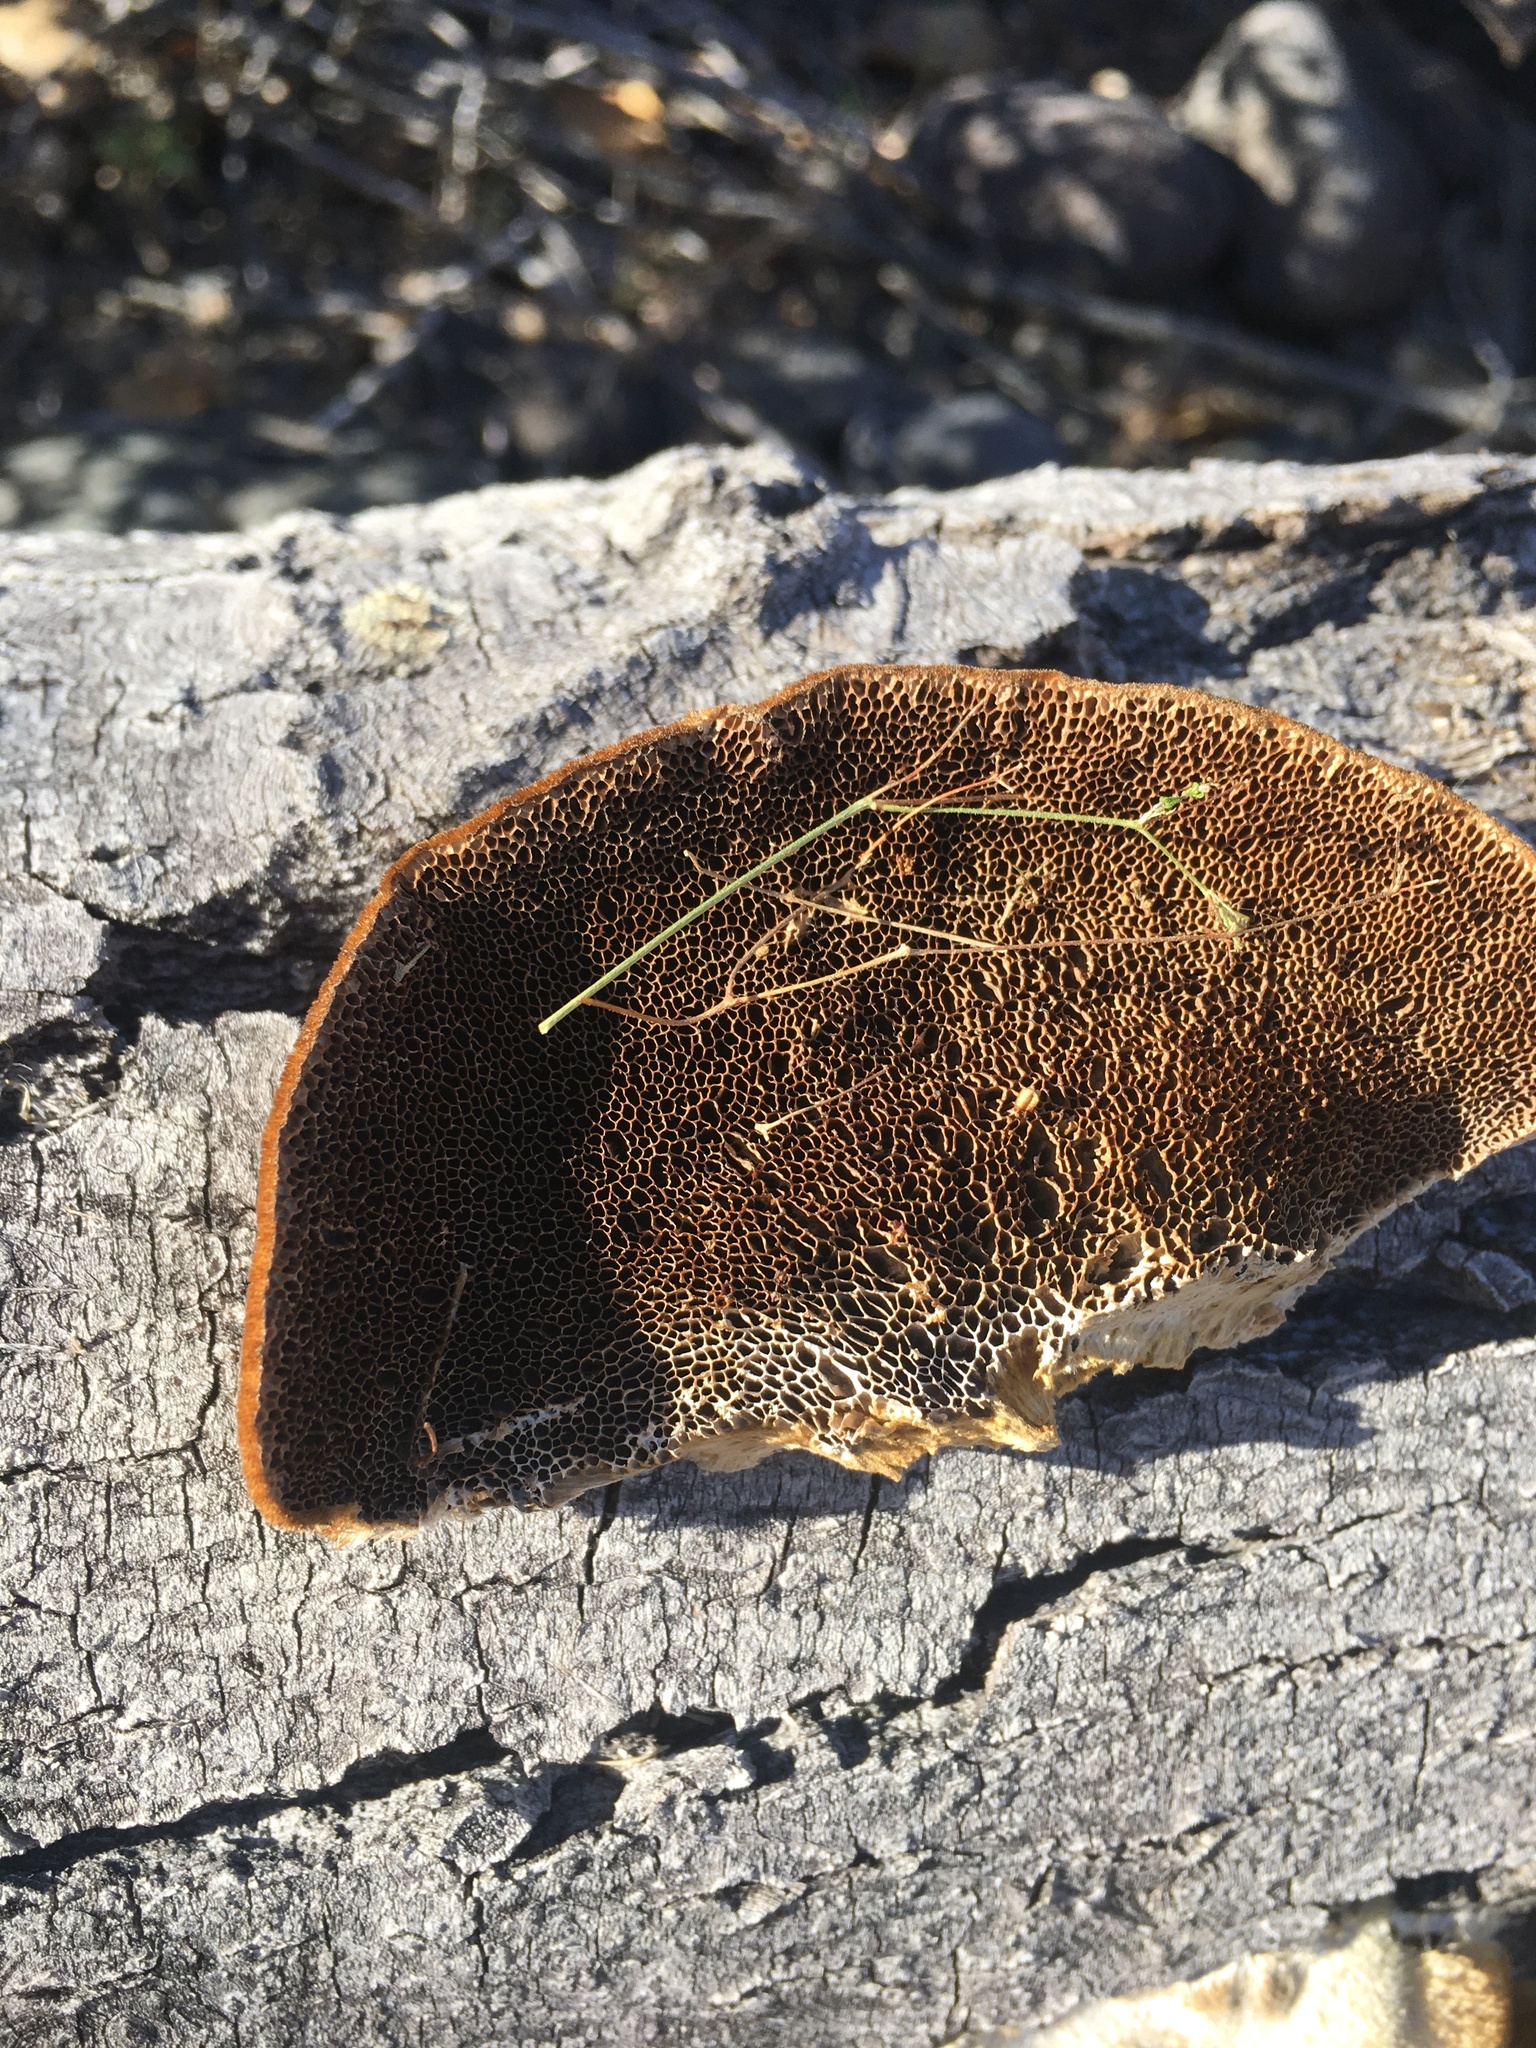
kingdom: Fungi
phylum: Basidiomycota
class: Agaricomycetes
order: Polyporales
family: Polyporaceae
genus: Trametes
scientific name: Trametes trogii
